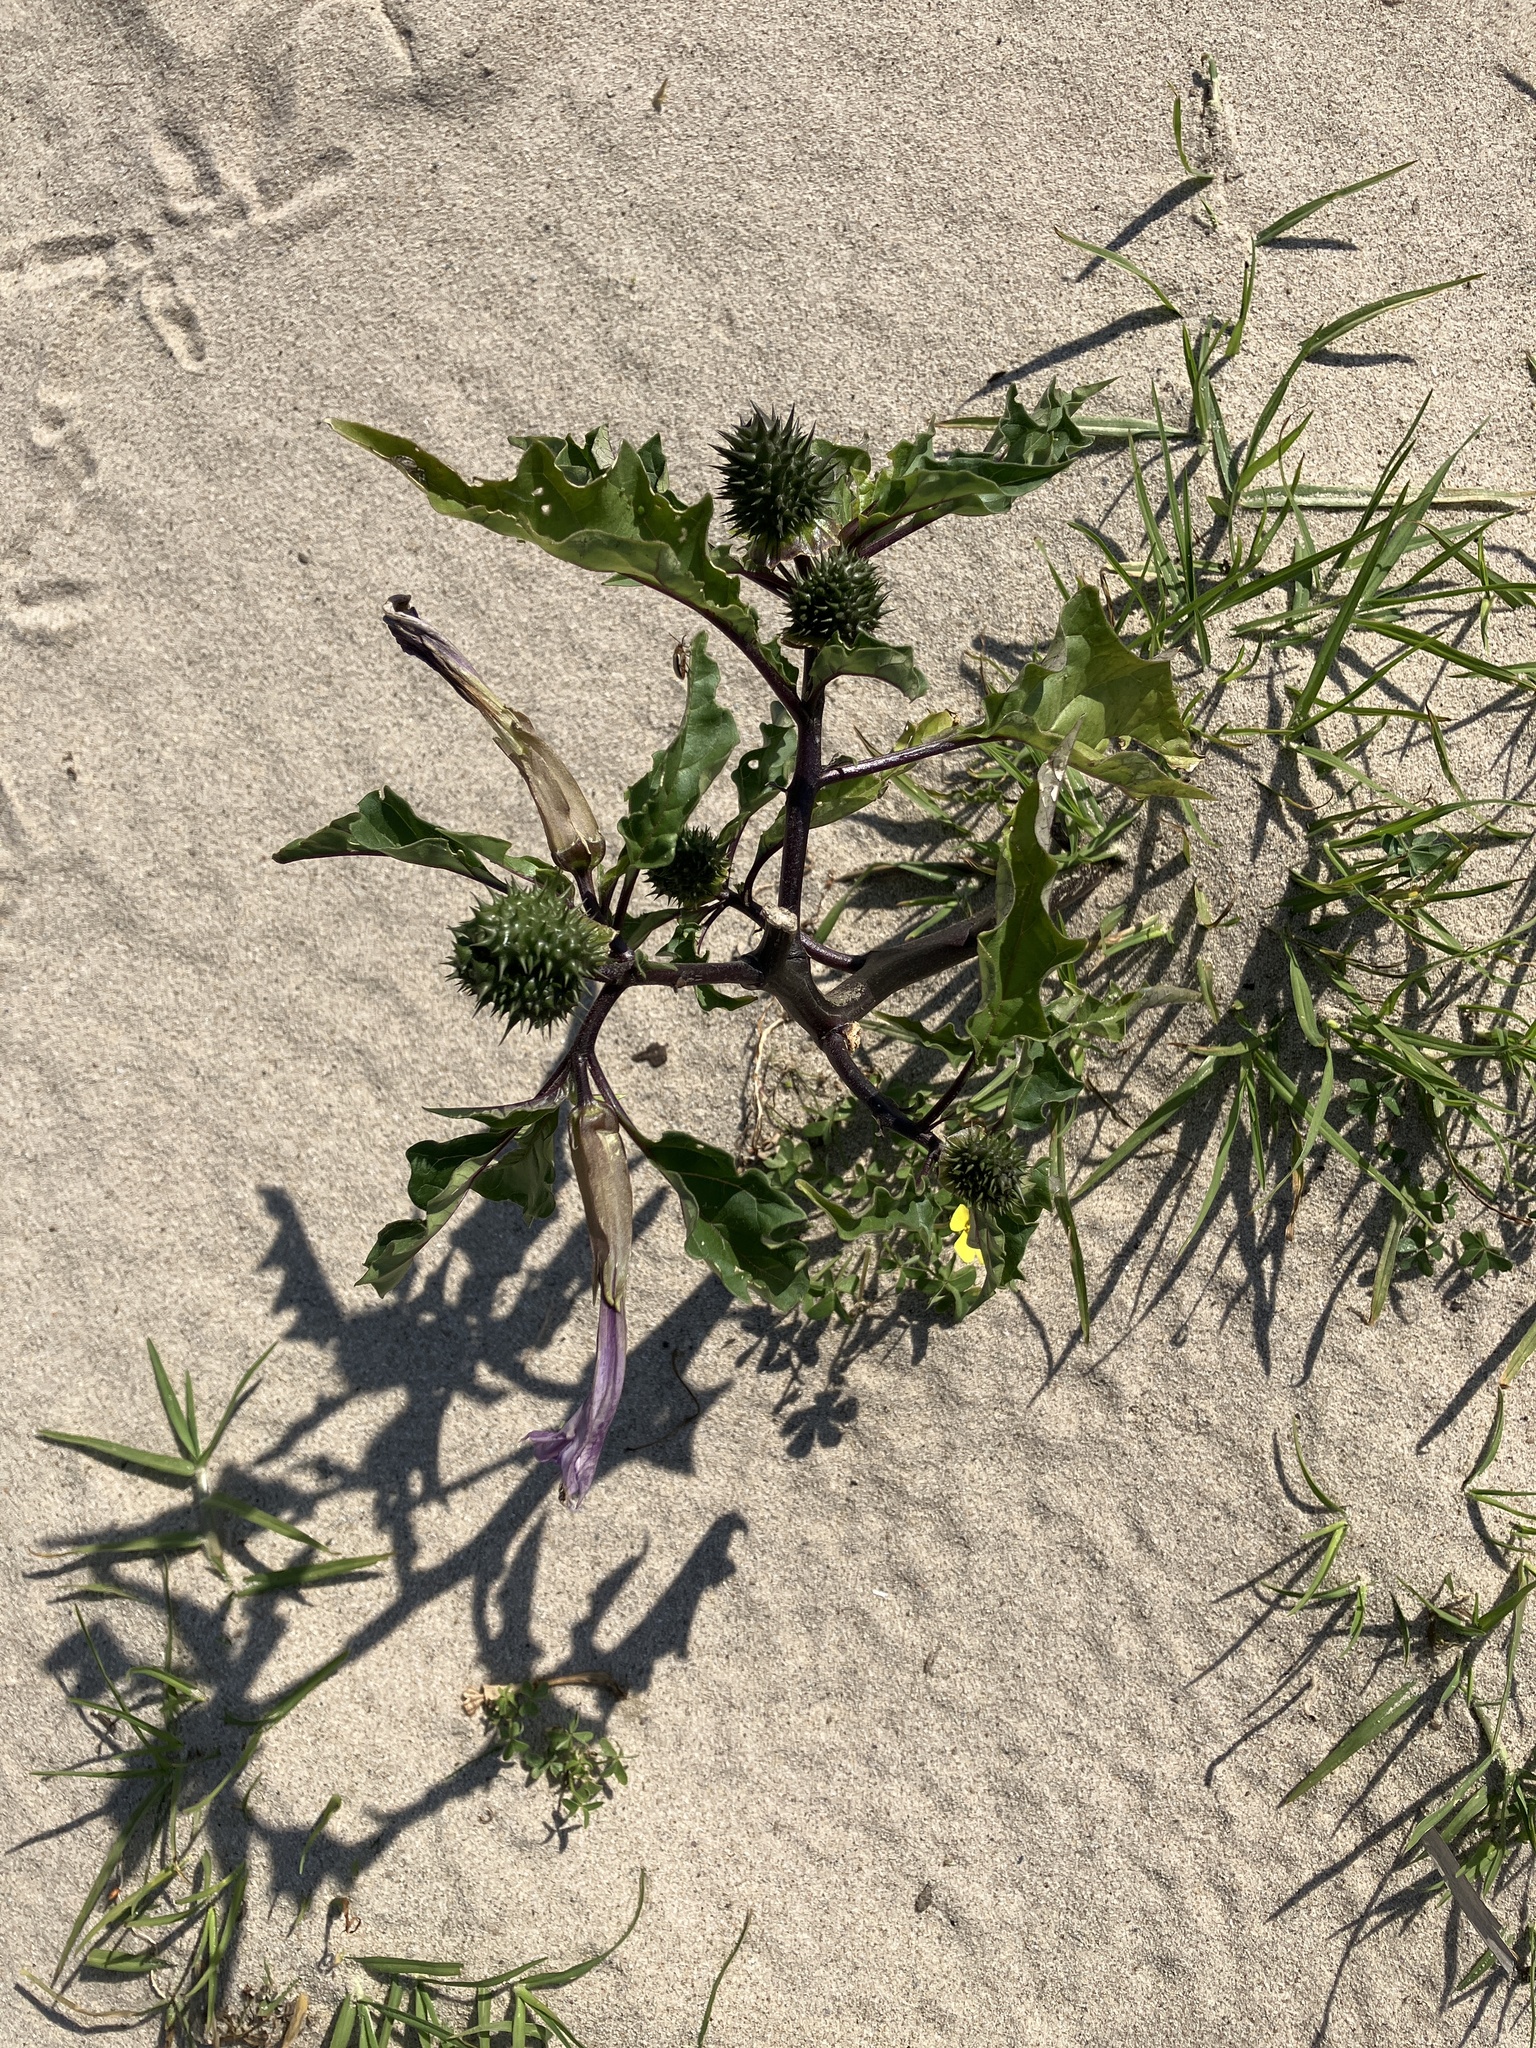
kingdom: Plantae
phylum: Tracheophyta
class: Magnoliopsida
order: Solanales
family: Solanaceae
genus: Datura
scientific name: Datura stramonium
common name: Thorn-apple
